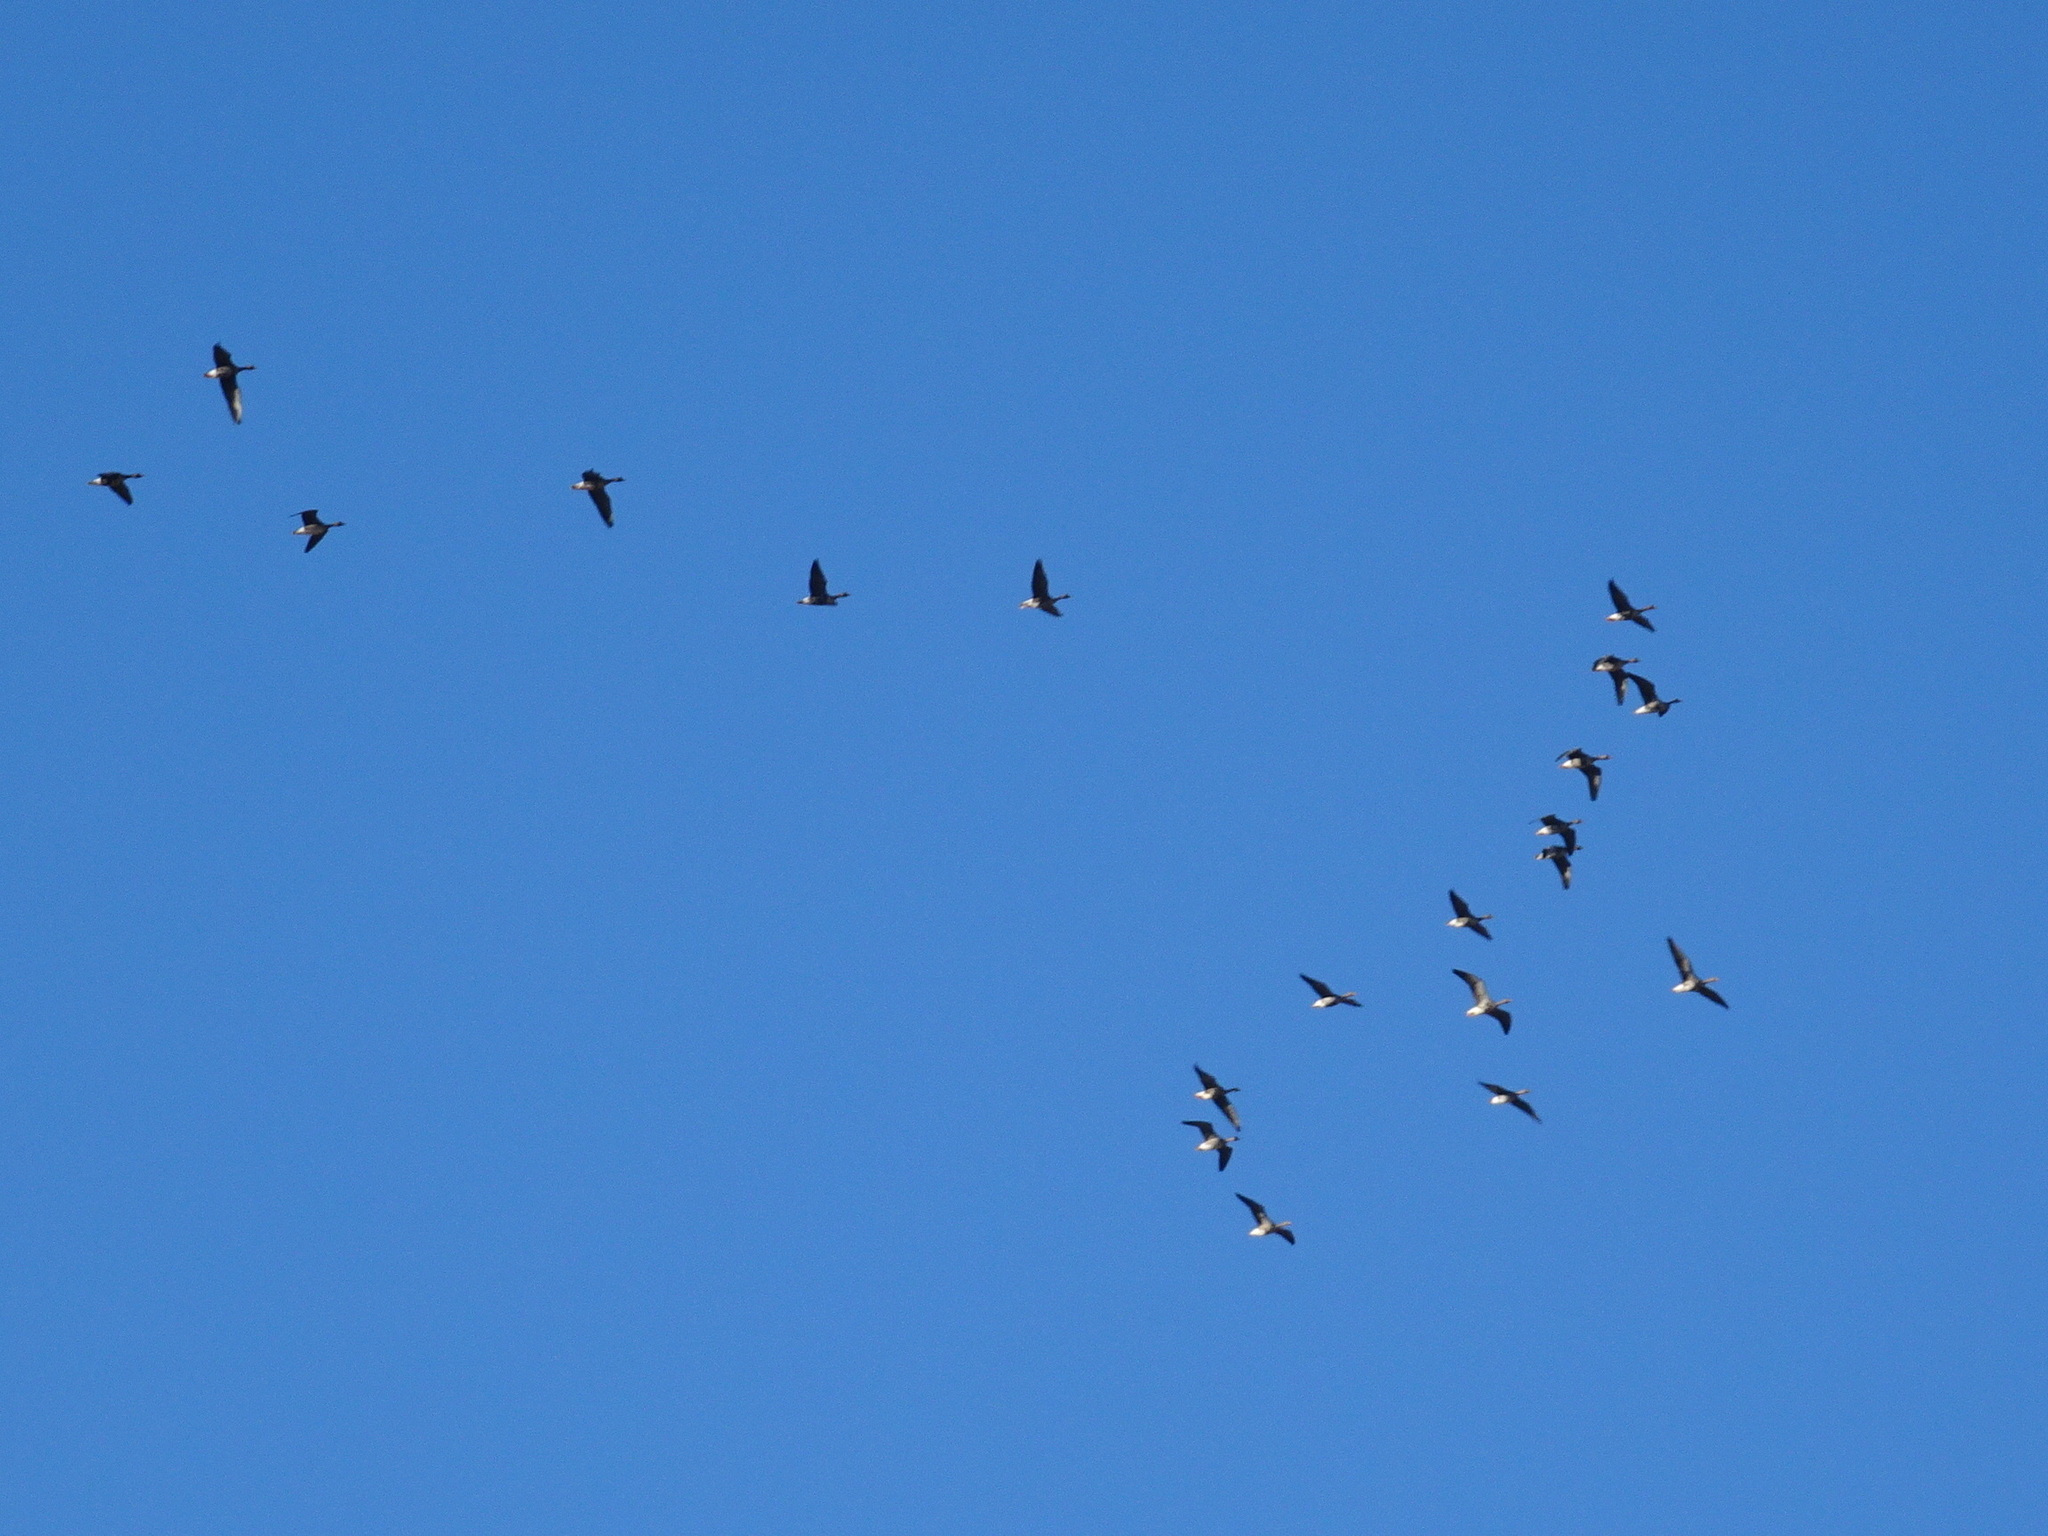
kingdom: Animalia
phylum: Chordata
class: Aves
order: Anseriformes
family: Anatidae
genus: Anser
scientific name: Anser albifrons
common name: Greater white-fronted goose
